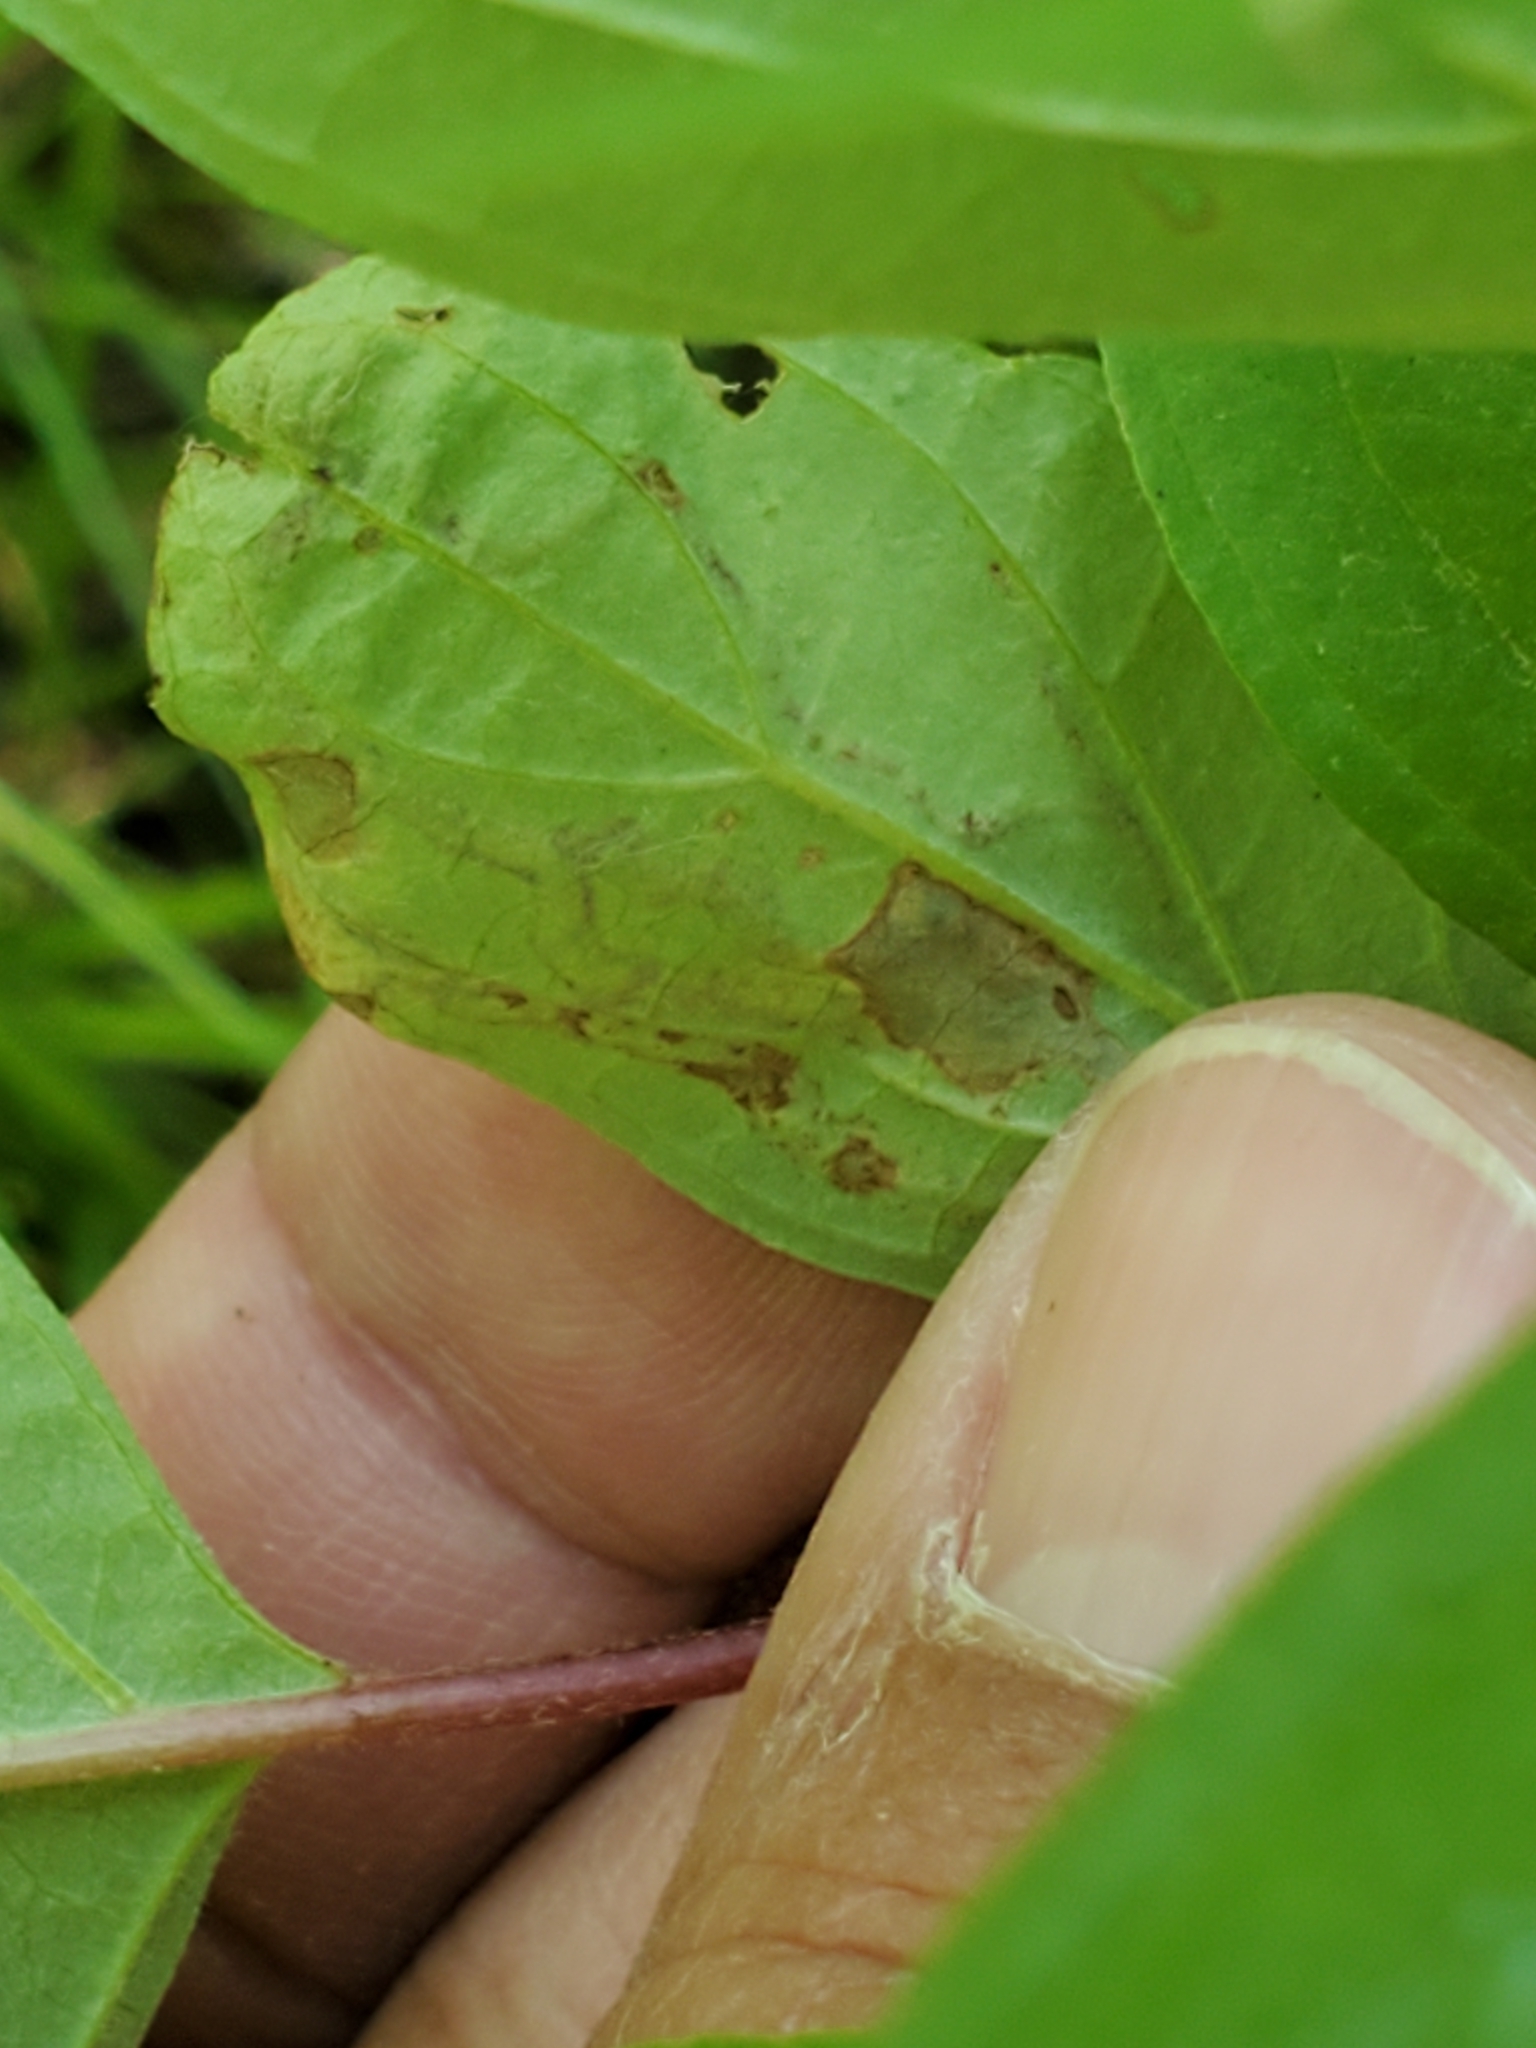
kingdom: Animalia
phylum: Arthropoda
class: Insecta
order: Diptera
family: Agromyzidae
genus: Phytomyza
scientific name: Phytomyza agromyzina
